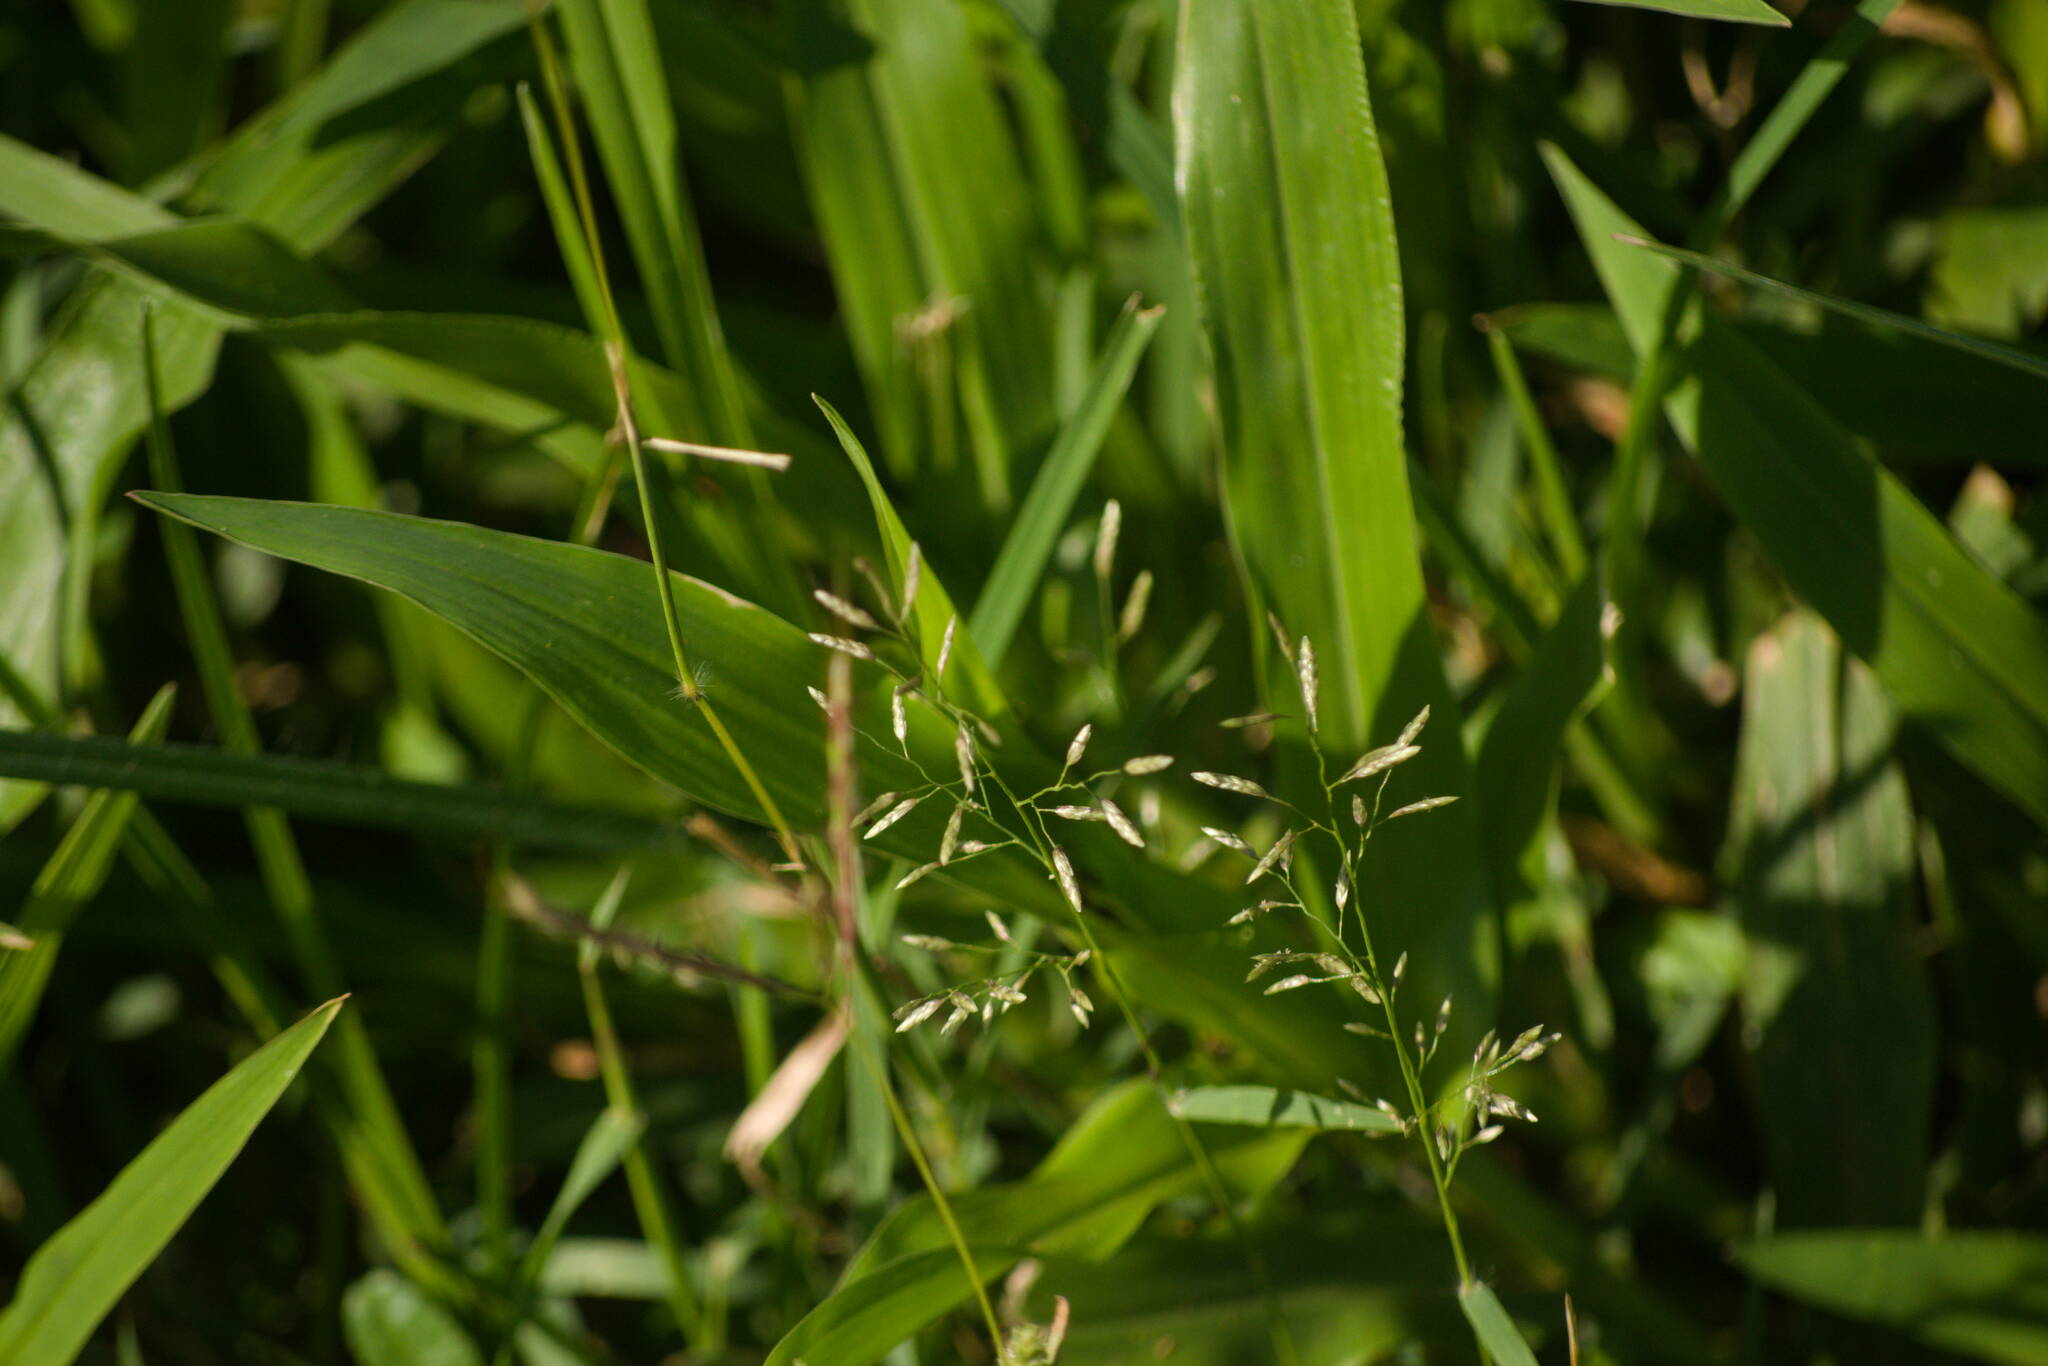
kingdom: Plantae
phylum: Tracheophyta
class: Liliopsida
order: Poales
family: Poaceae
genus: Eragrostis
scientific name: Eragrostis barrelieri
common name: Mediterranean lovegrass
